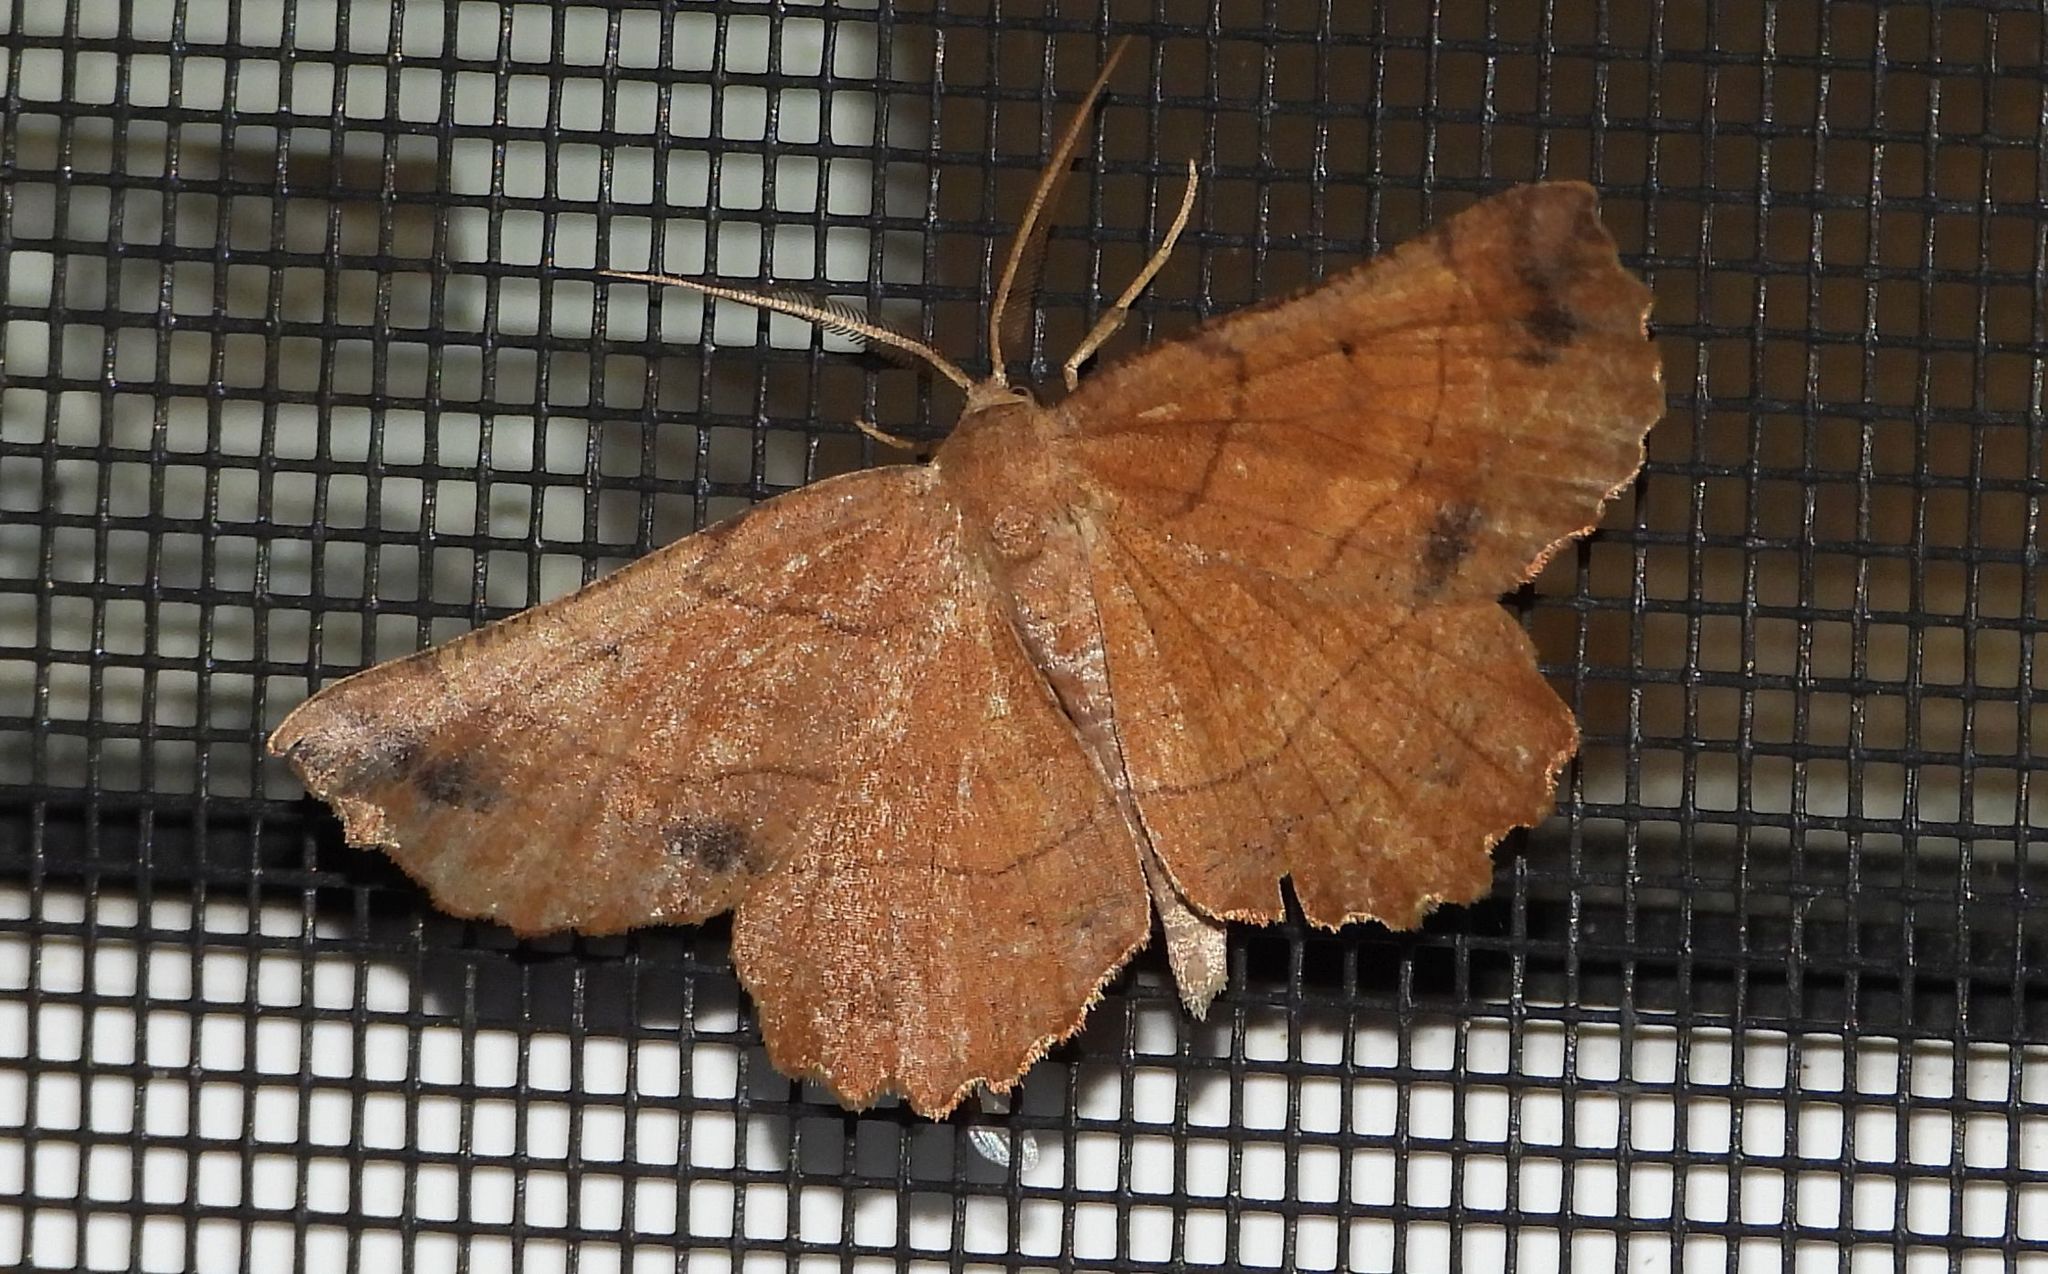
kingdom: Animalia
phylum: Arthropoda
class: Insecta
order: Lepidoptera
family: Geometridae
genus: Euchlaena
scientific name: Euchlaena johnsonaria
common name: Johnson's euchlaena
